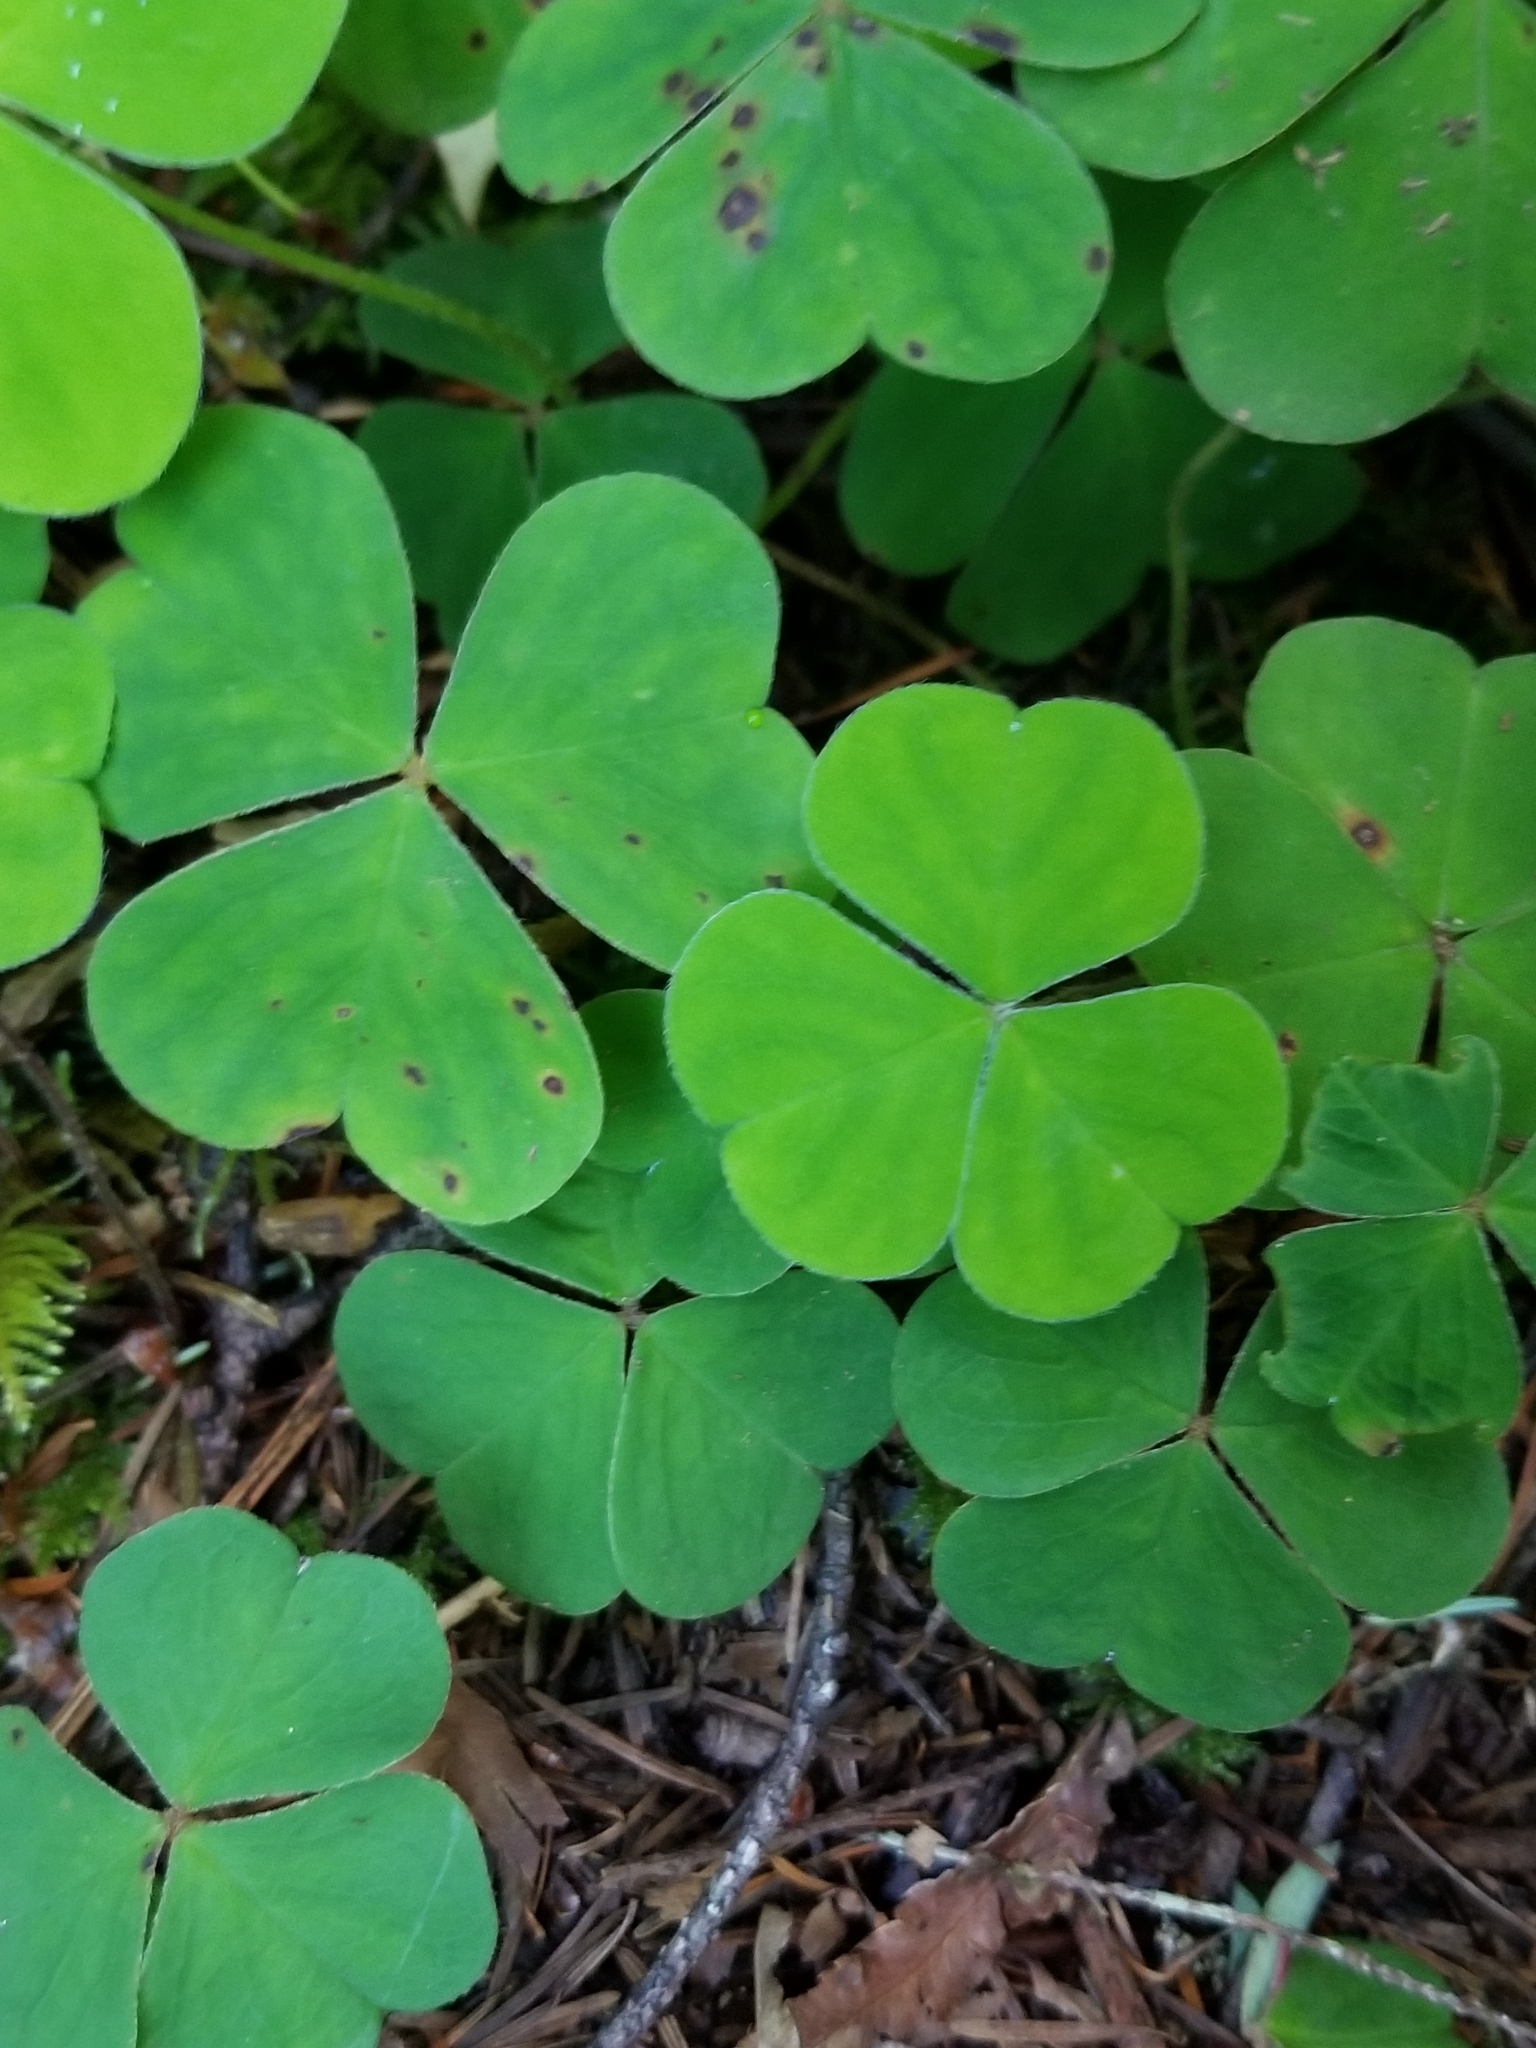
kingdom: Plantae
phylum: Tracheophyta
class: Magnoliopsida
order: Oxalidales
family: Oxalidaceae
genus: Oxalis
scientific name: Oxalis oregana
